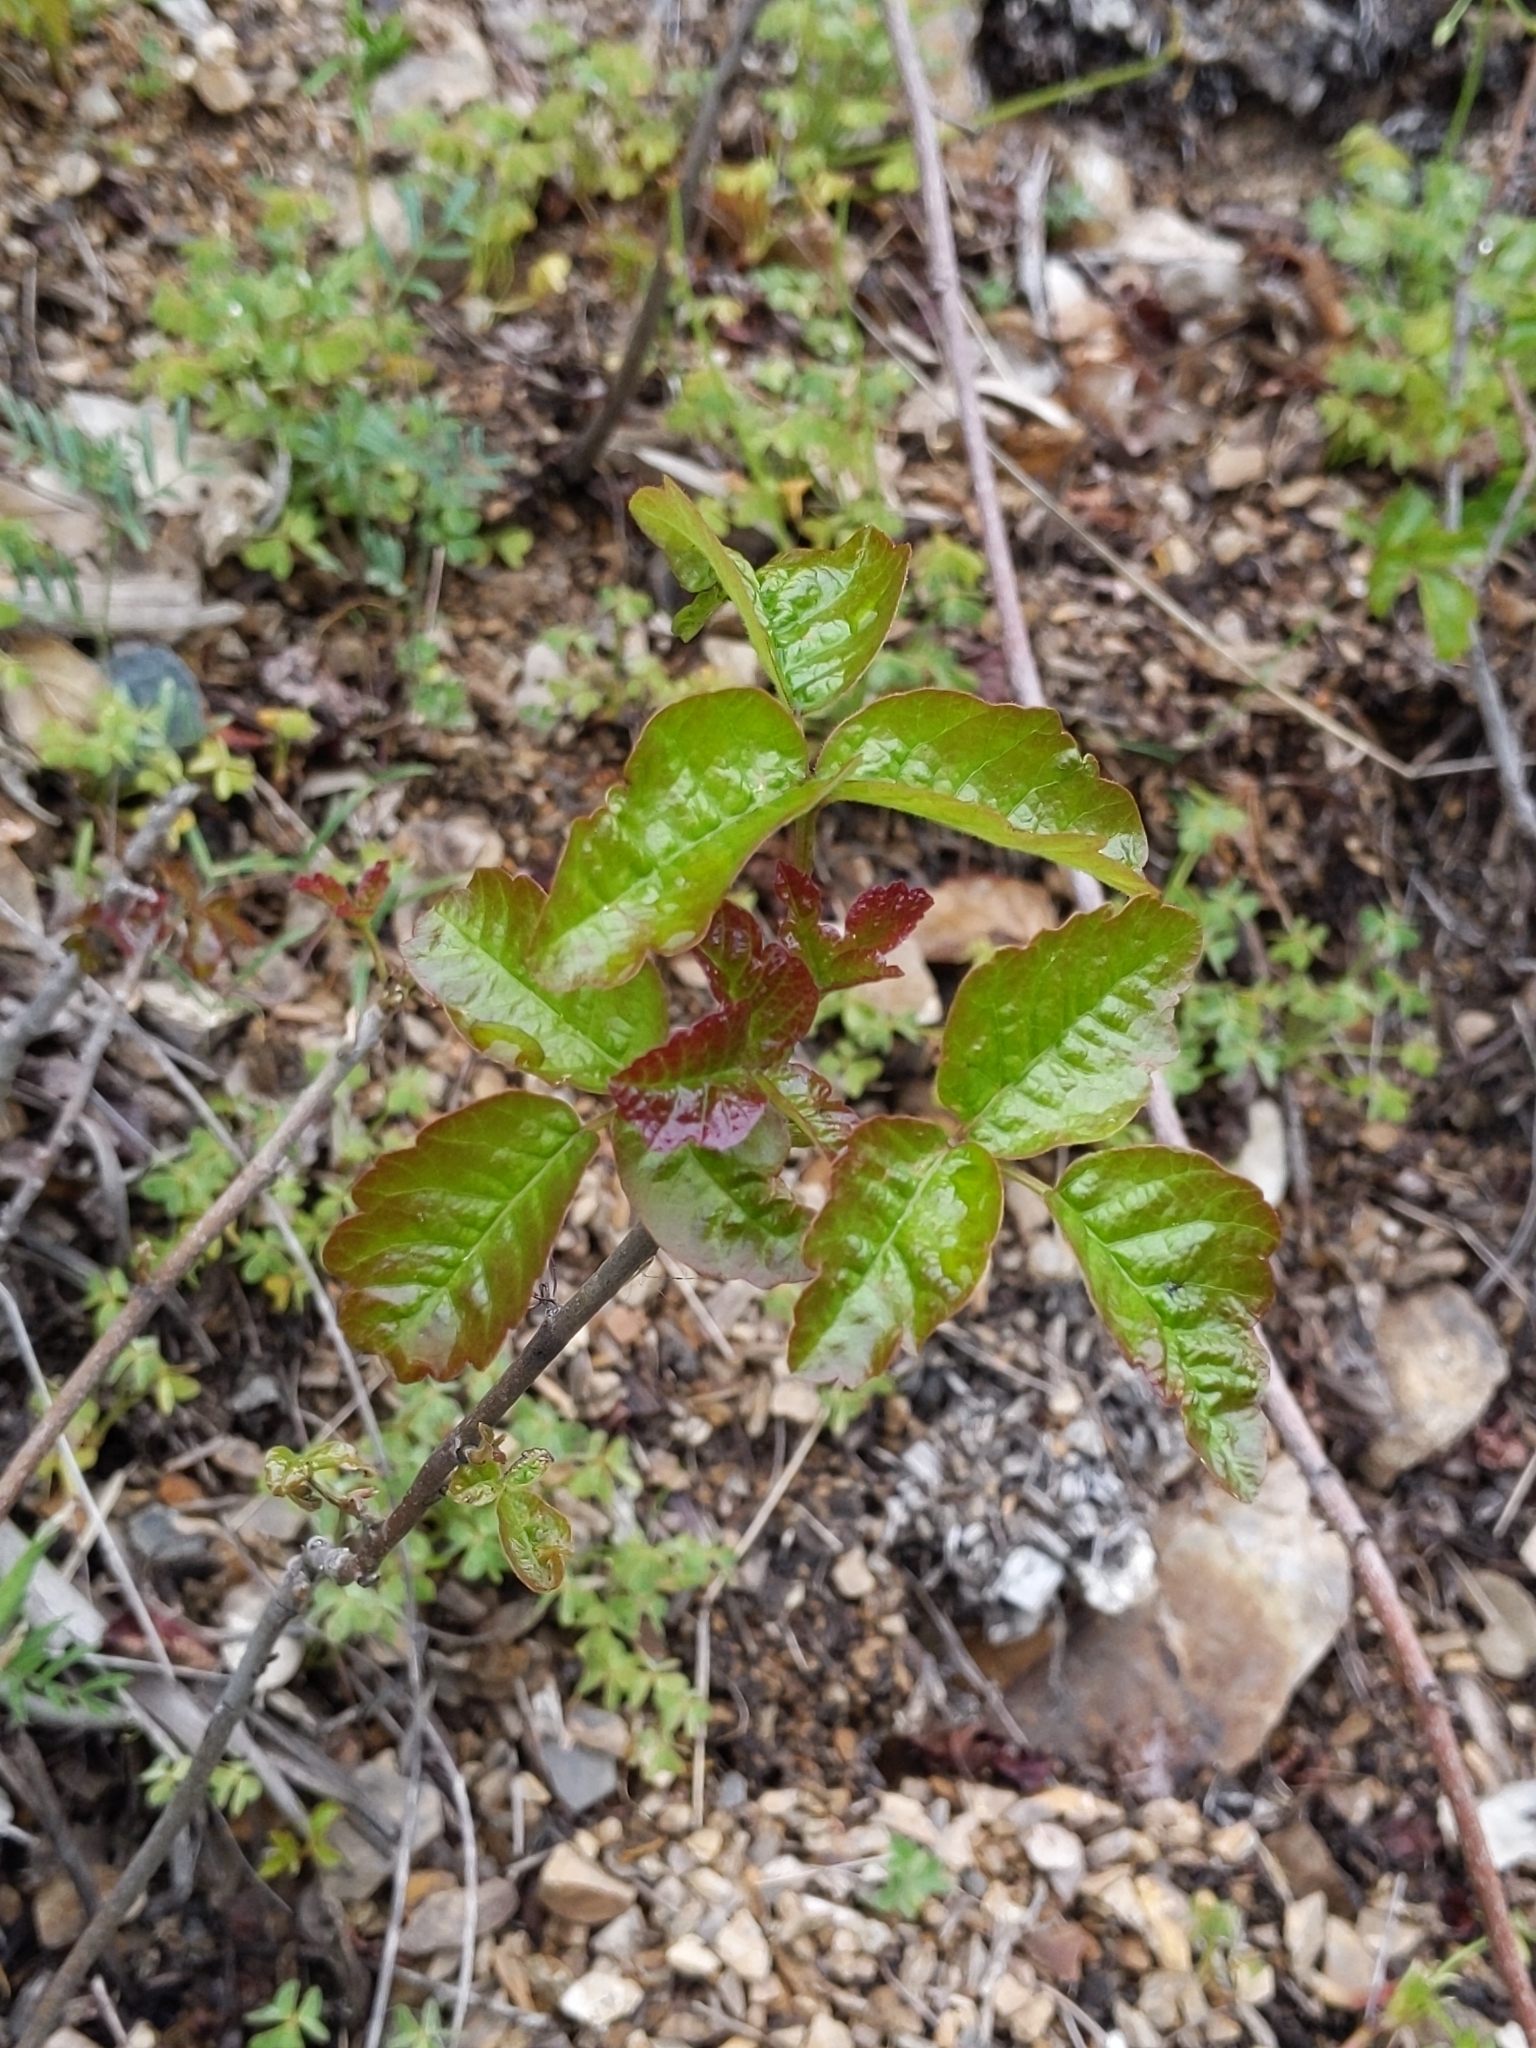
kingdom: Plantae
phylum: Tracheophyta
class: Magnoliopsida
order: Sapindales
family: Anacardiaceae
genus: Toxicodendron
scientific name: Toxicodendron diversilobum
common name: Pacific poison-oak
